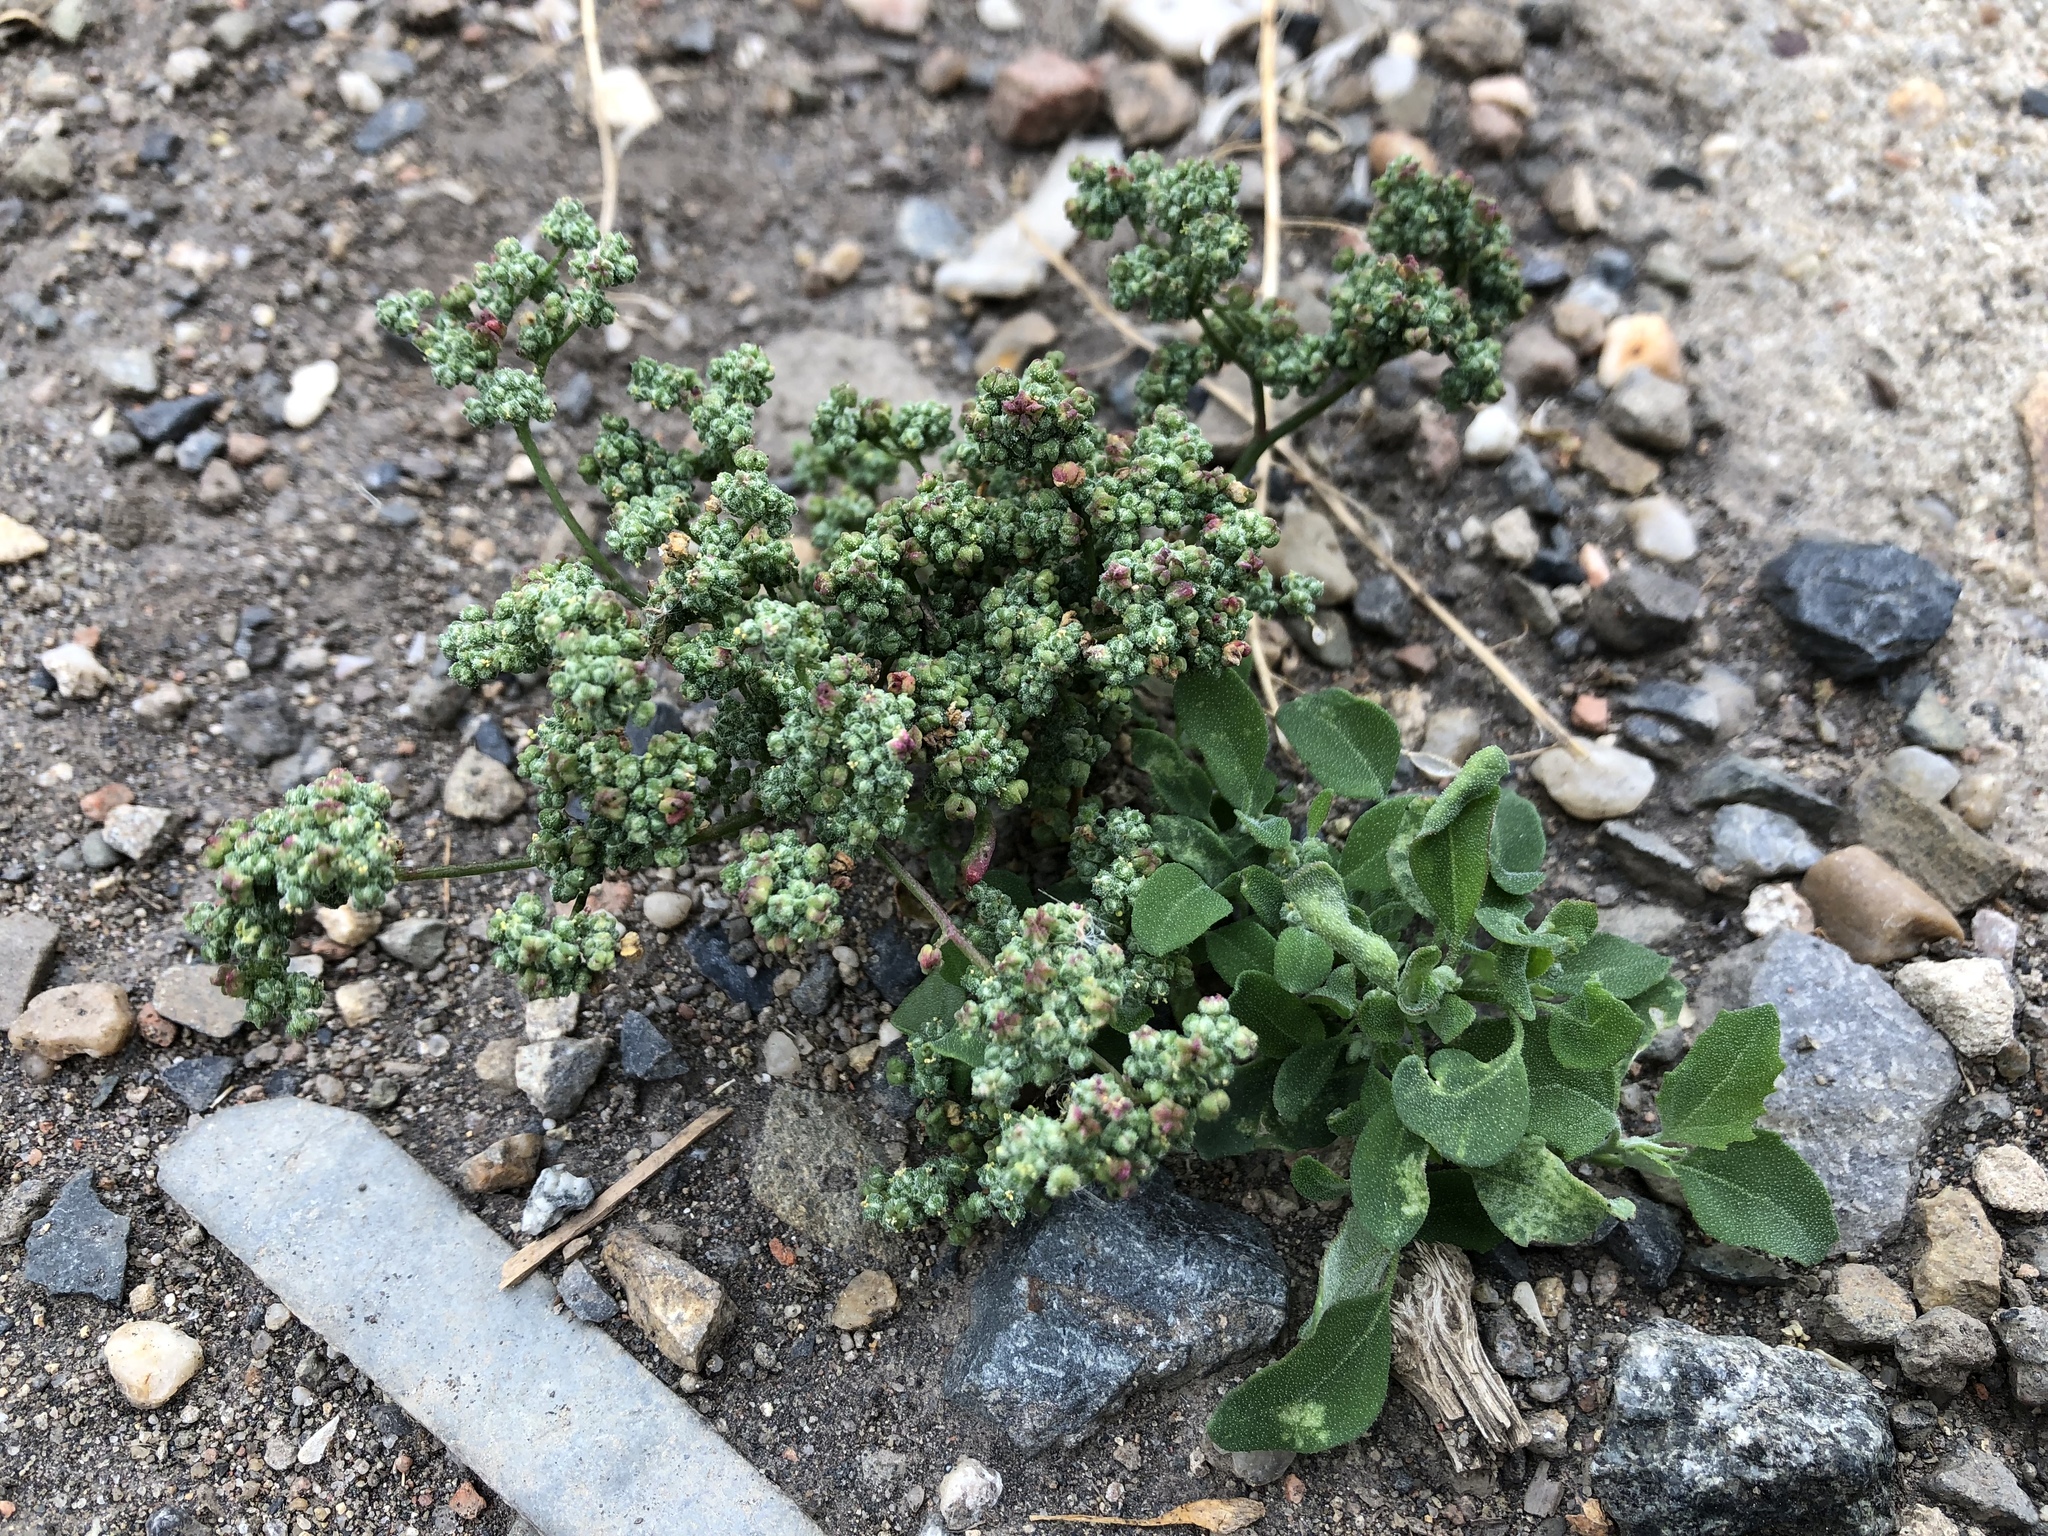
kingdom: Plantae
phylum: Tracheophyta
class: Magnoliopsida
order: Caryophyllales
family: Amaranthaceae
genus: Chenopodium
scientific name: Chenopodium album
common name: Fat-hen
